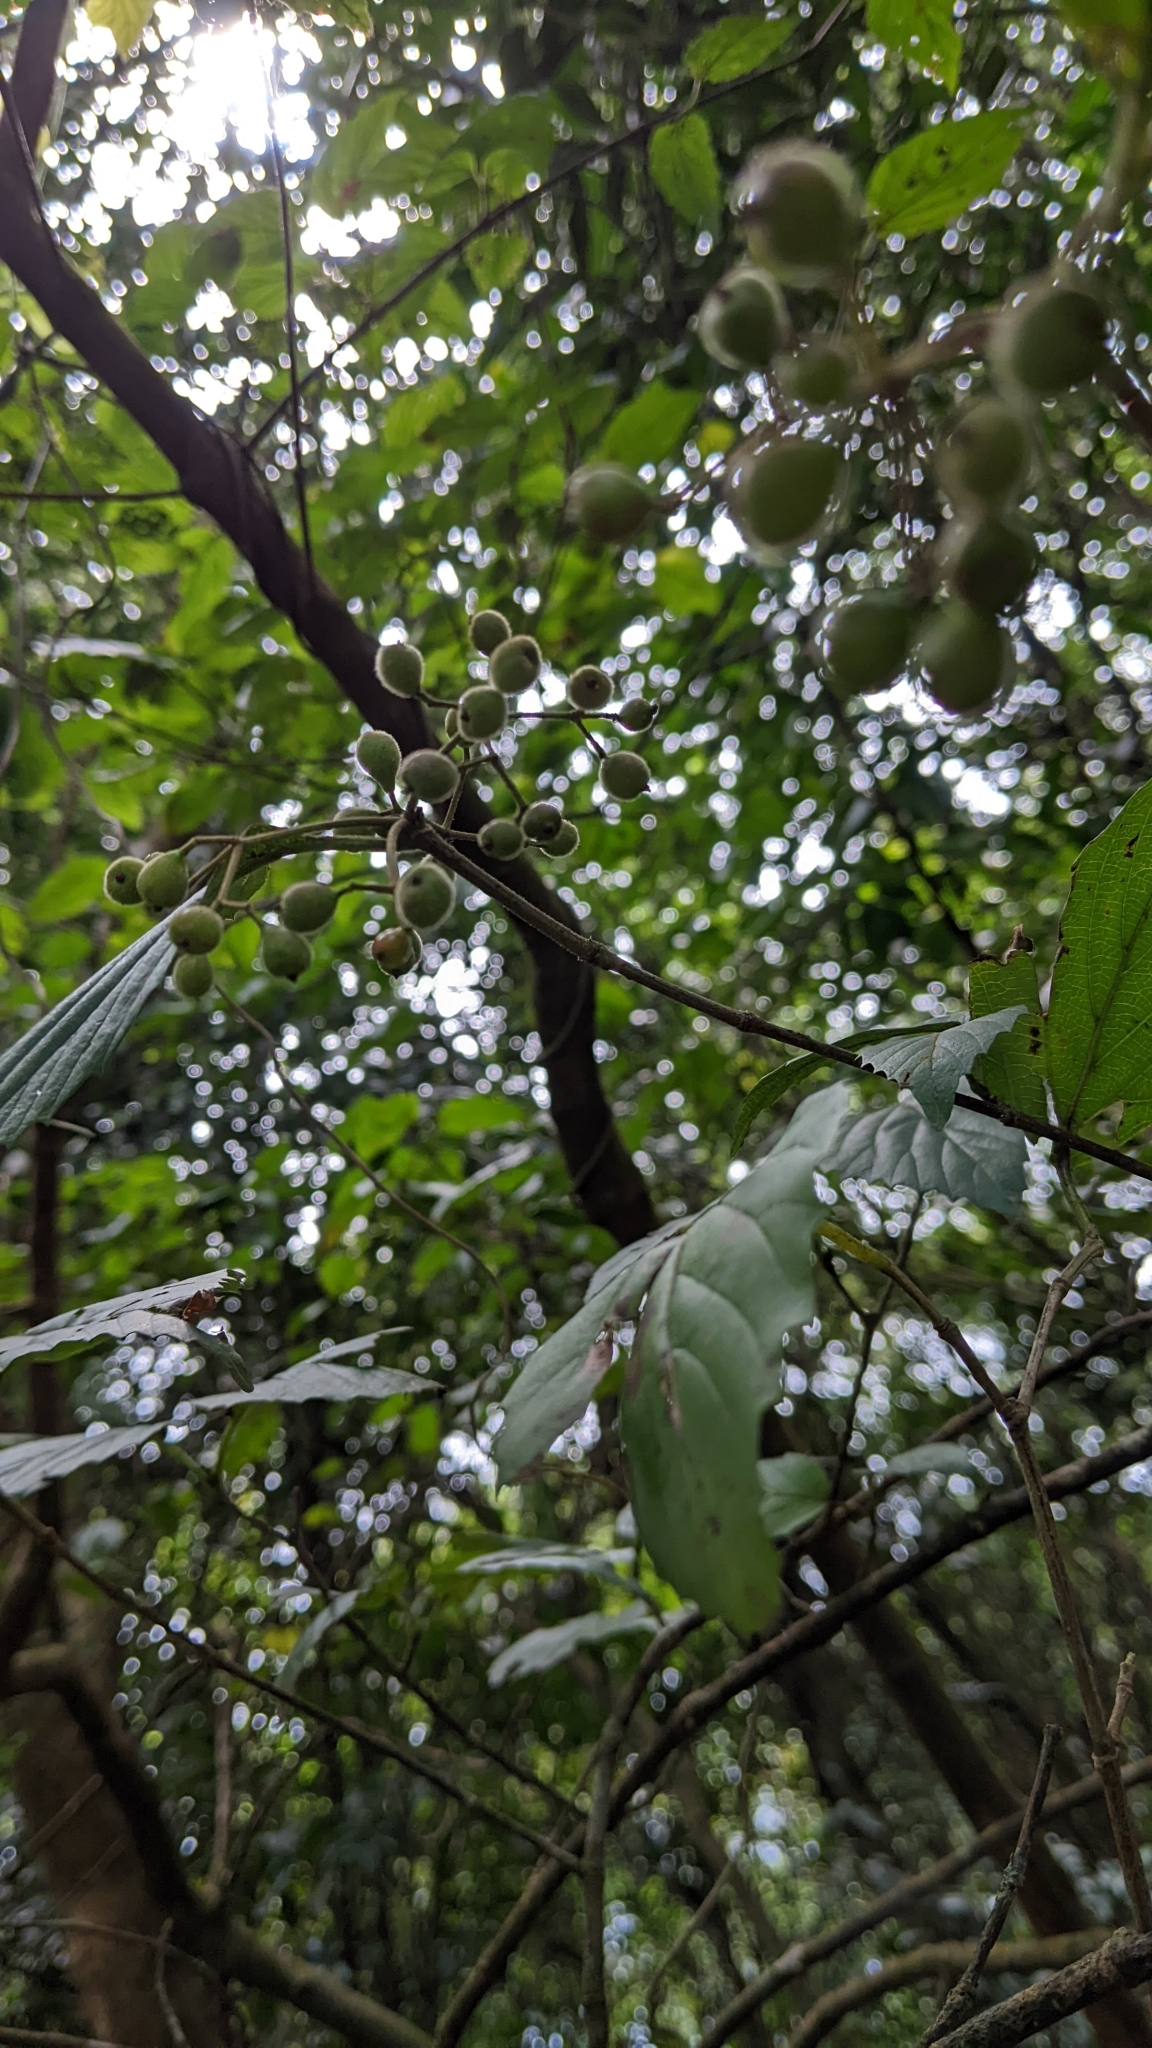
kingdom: Plantae
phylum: Tracheophyta
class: Magnoliopsida
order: Dipsacales
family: Viburnaceae
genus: Viburnum
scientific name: Viburnum luzonicum
